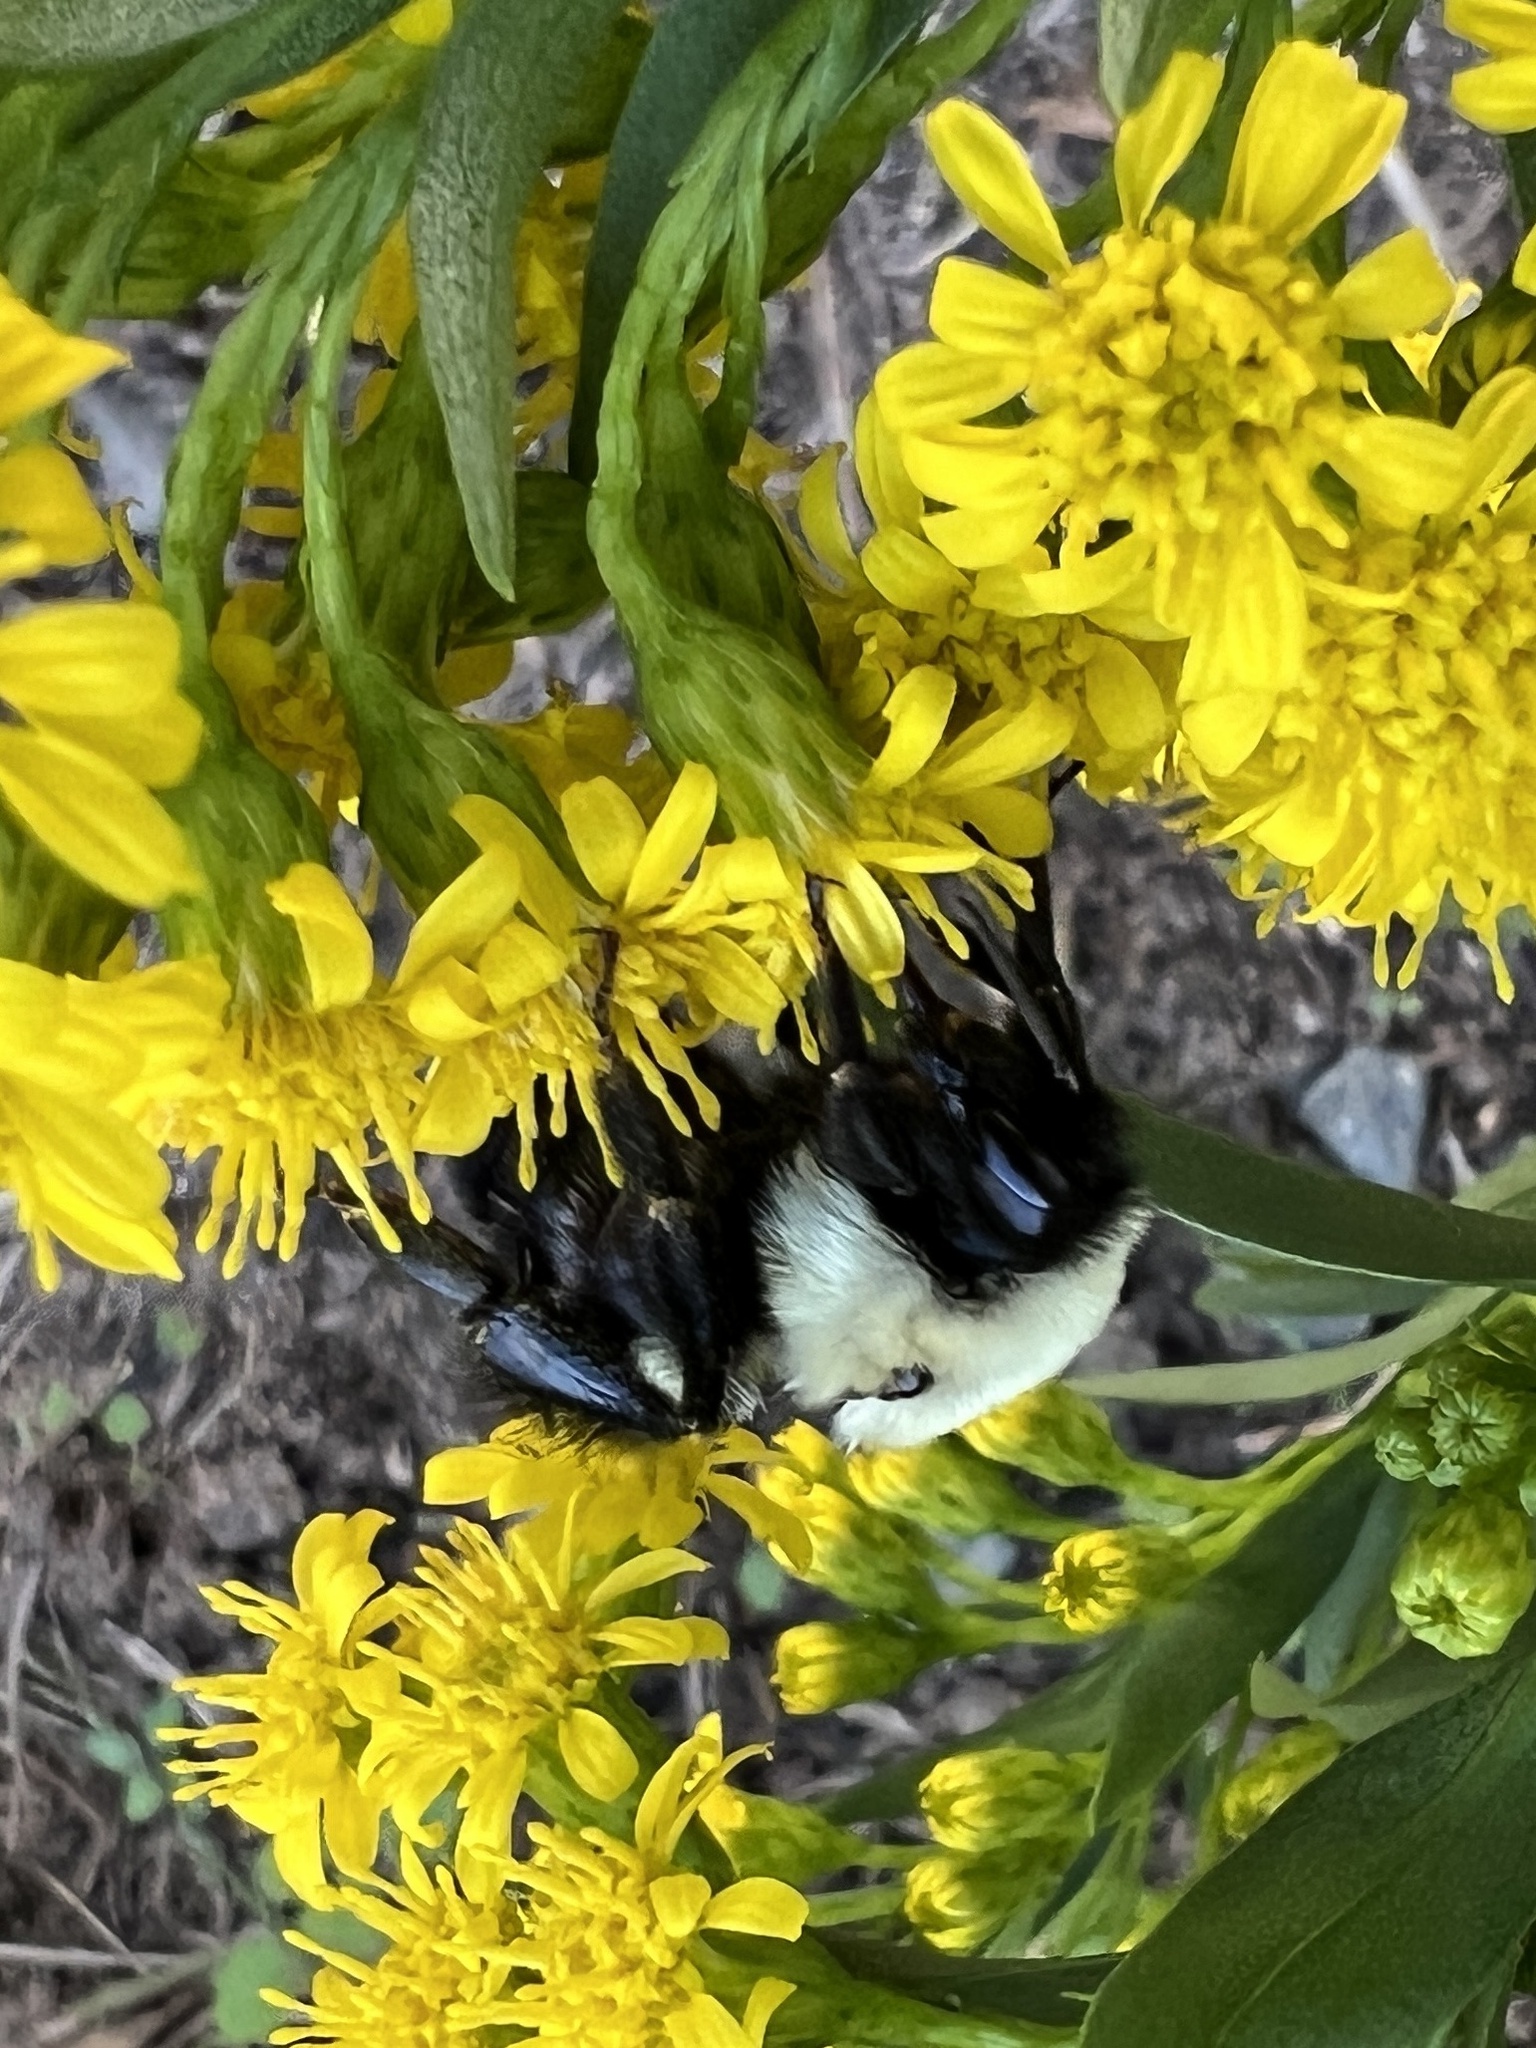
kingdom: Animalia
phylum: Arthropoda
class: Insecta
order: Hymenoptera
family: Apidae
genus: Bombus
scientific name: Bombus impatiens
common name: Common eastern bumble bee
